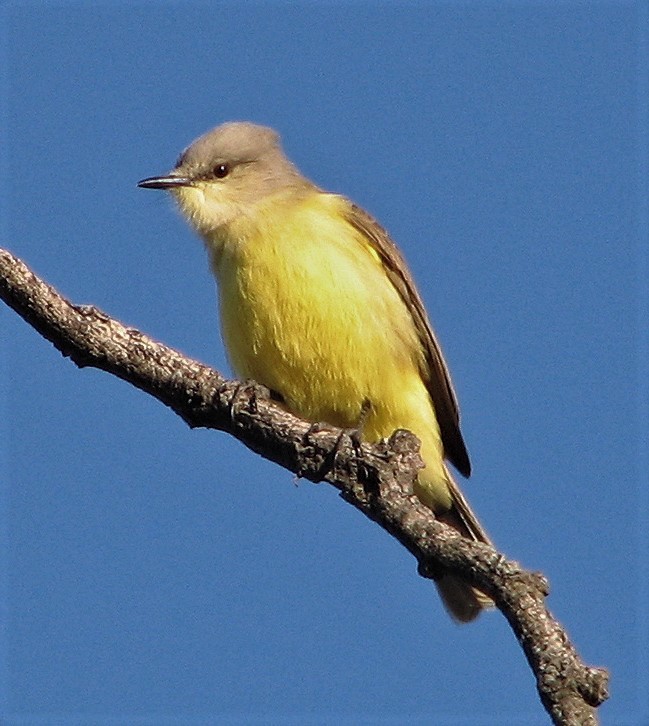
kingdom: Animalia
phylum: Chordata
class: Aves
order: Passeriformes
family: Tyrannidae
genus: Machetornis
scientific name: Machetornis rixosa
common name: Cattle tyrant
